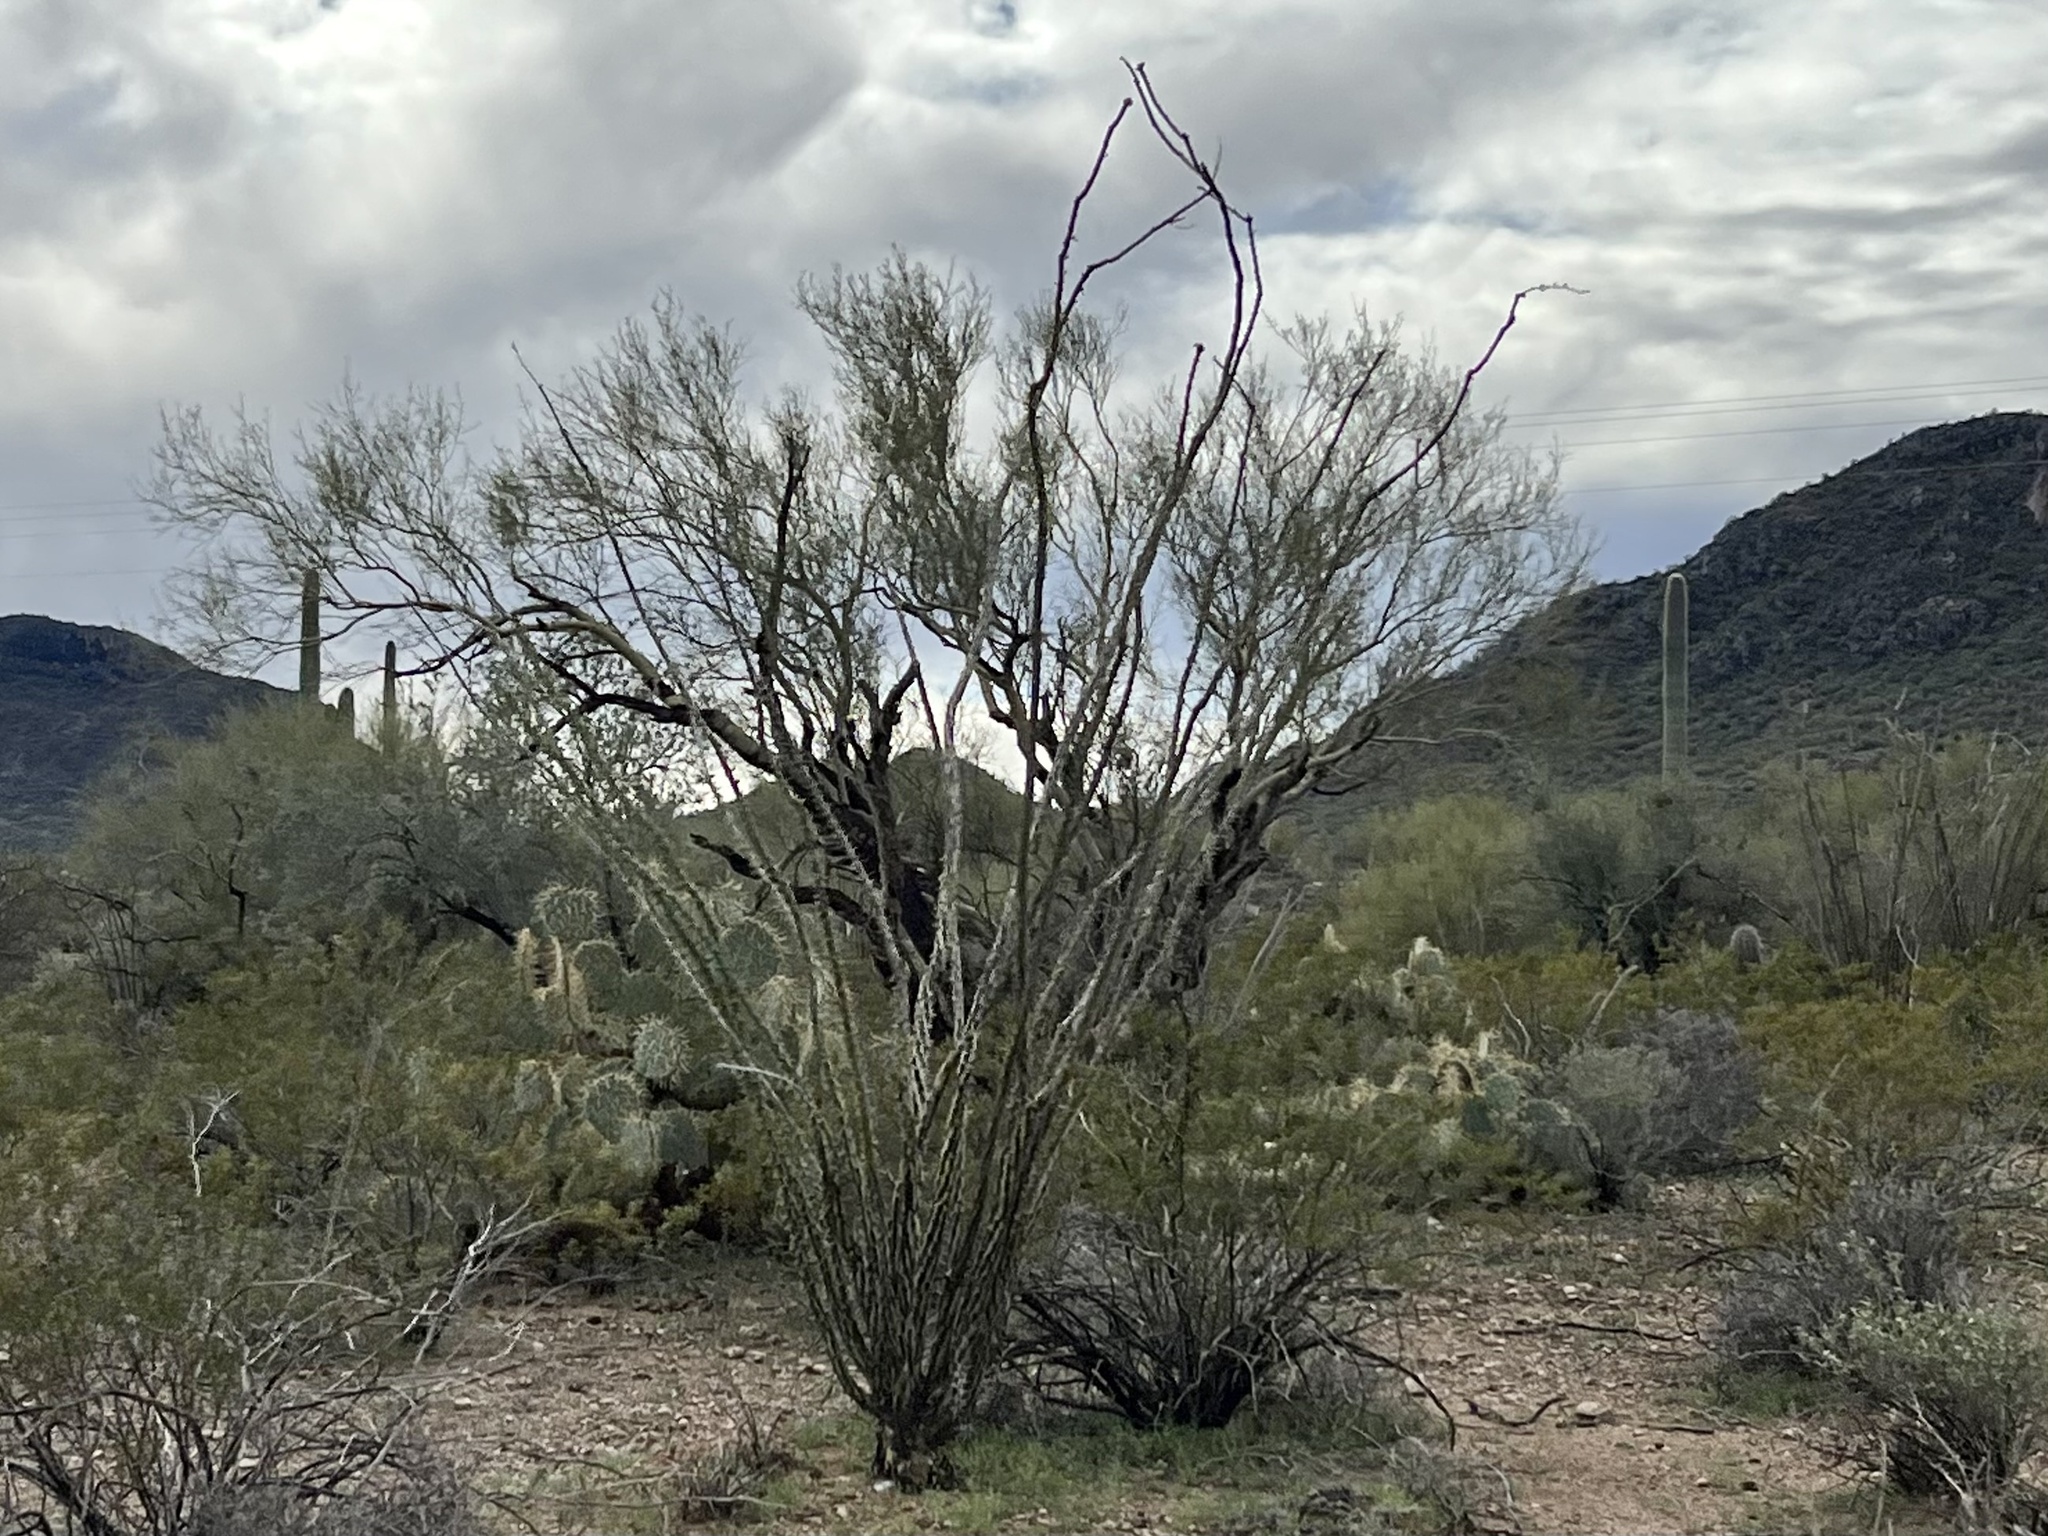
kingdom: Plantae
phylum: Tracheophyta
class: Magnoliopsida
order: Ericales
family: Fouquieriaceae
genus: Fouquieria
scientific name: Fouquieria splendens
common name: Vine-cactus
